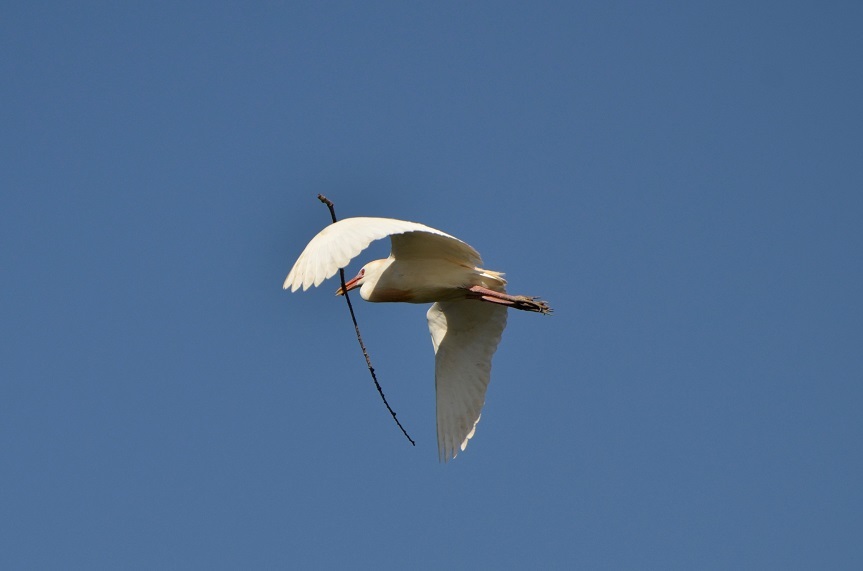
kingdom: Animalia
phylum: Chordata
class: Aves
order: Pelecaniformes
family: Ardeidae
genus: Bubulcus
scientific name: Bubulcus ibis
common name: Cattle egret
